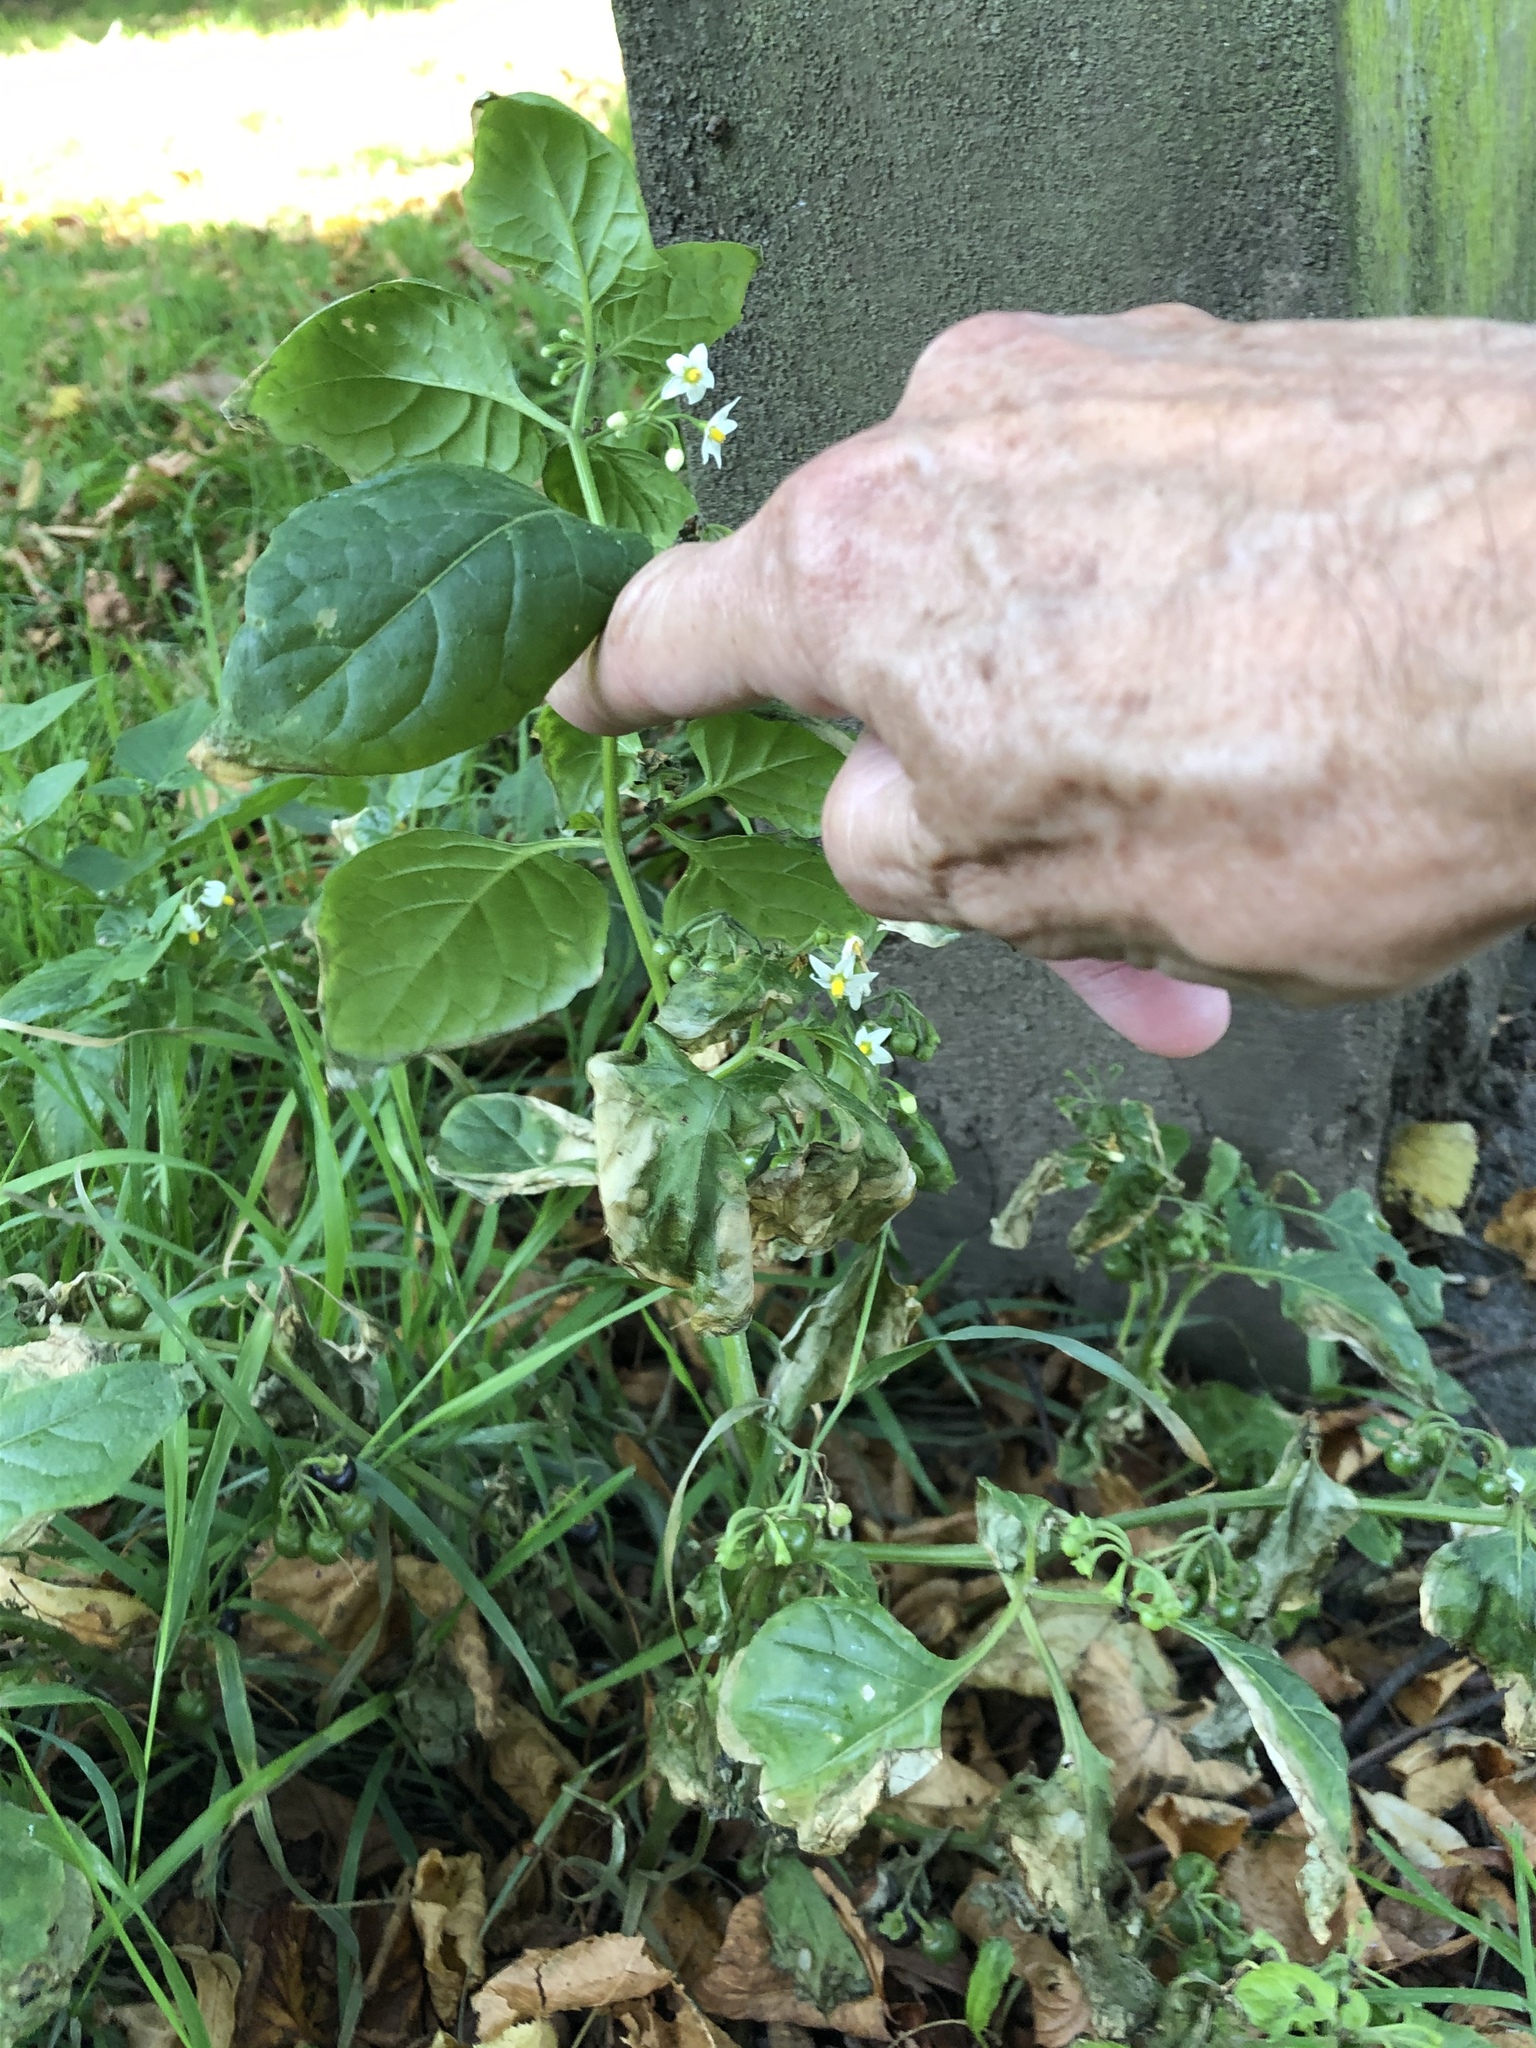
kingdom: Plantae
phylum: Tracheophyta
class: Magnoliopsida
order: Solanales
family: Solanaceae
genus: Solanum
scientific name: Solanum nigrum
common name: Black nightshade
